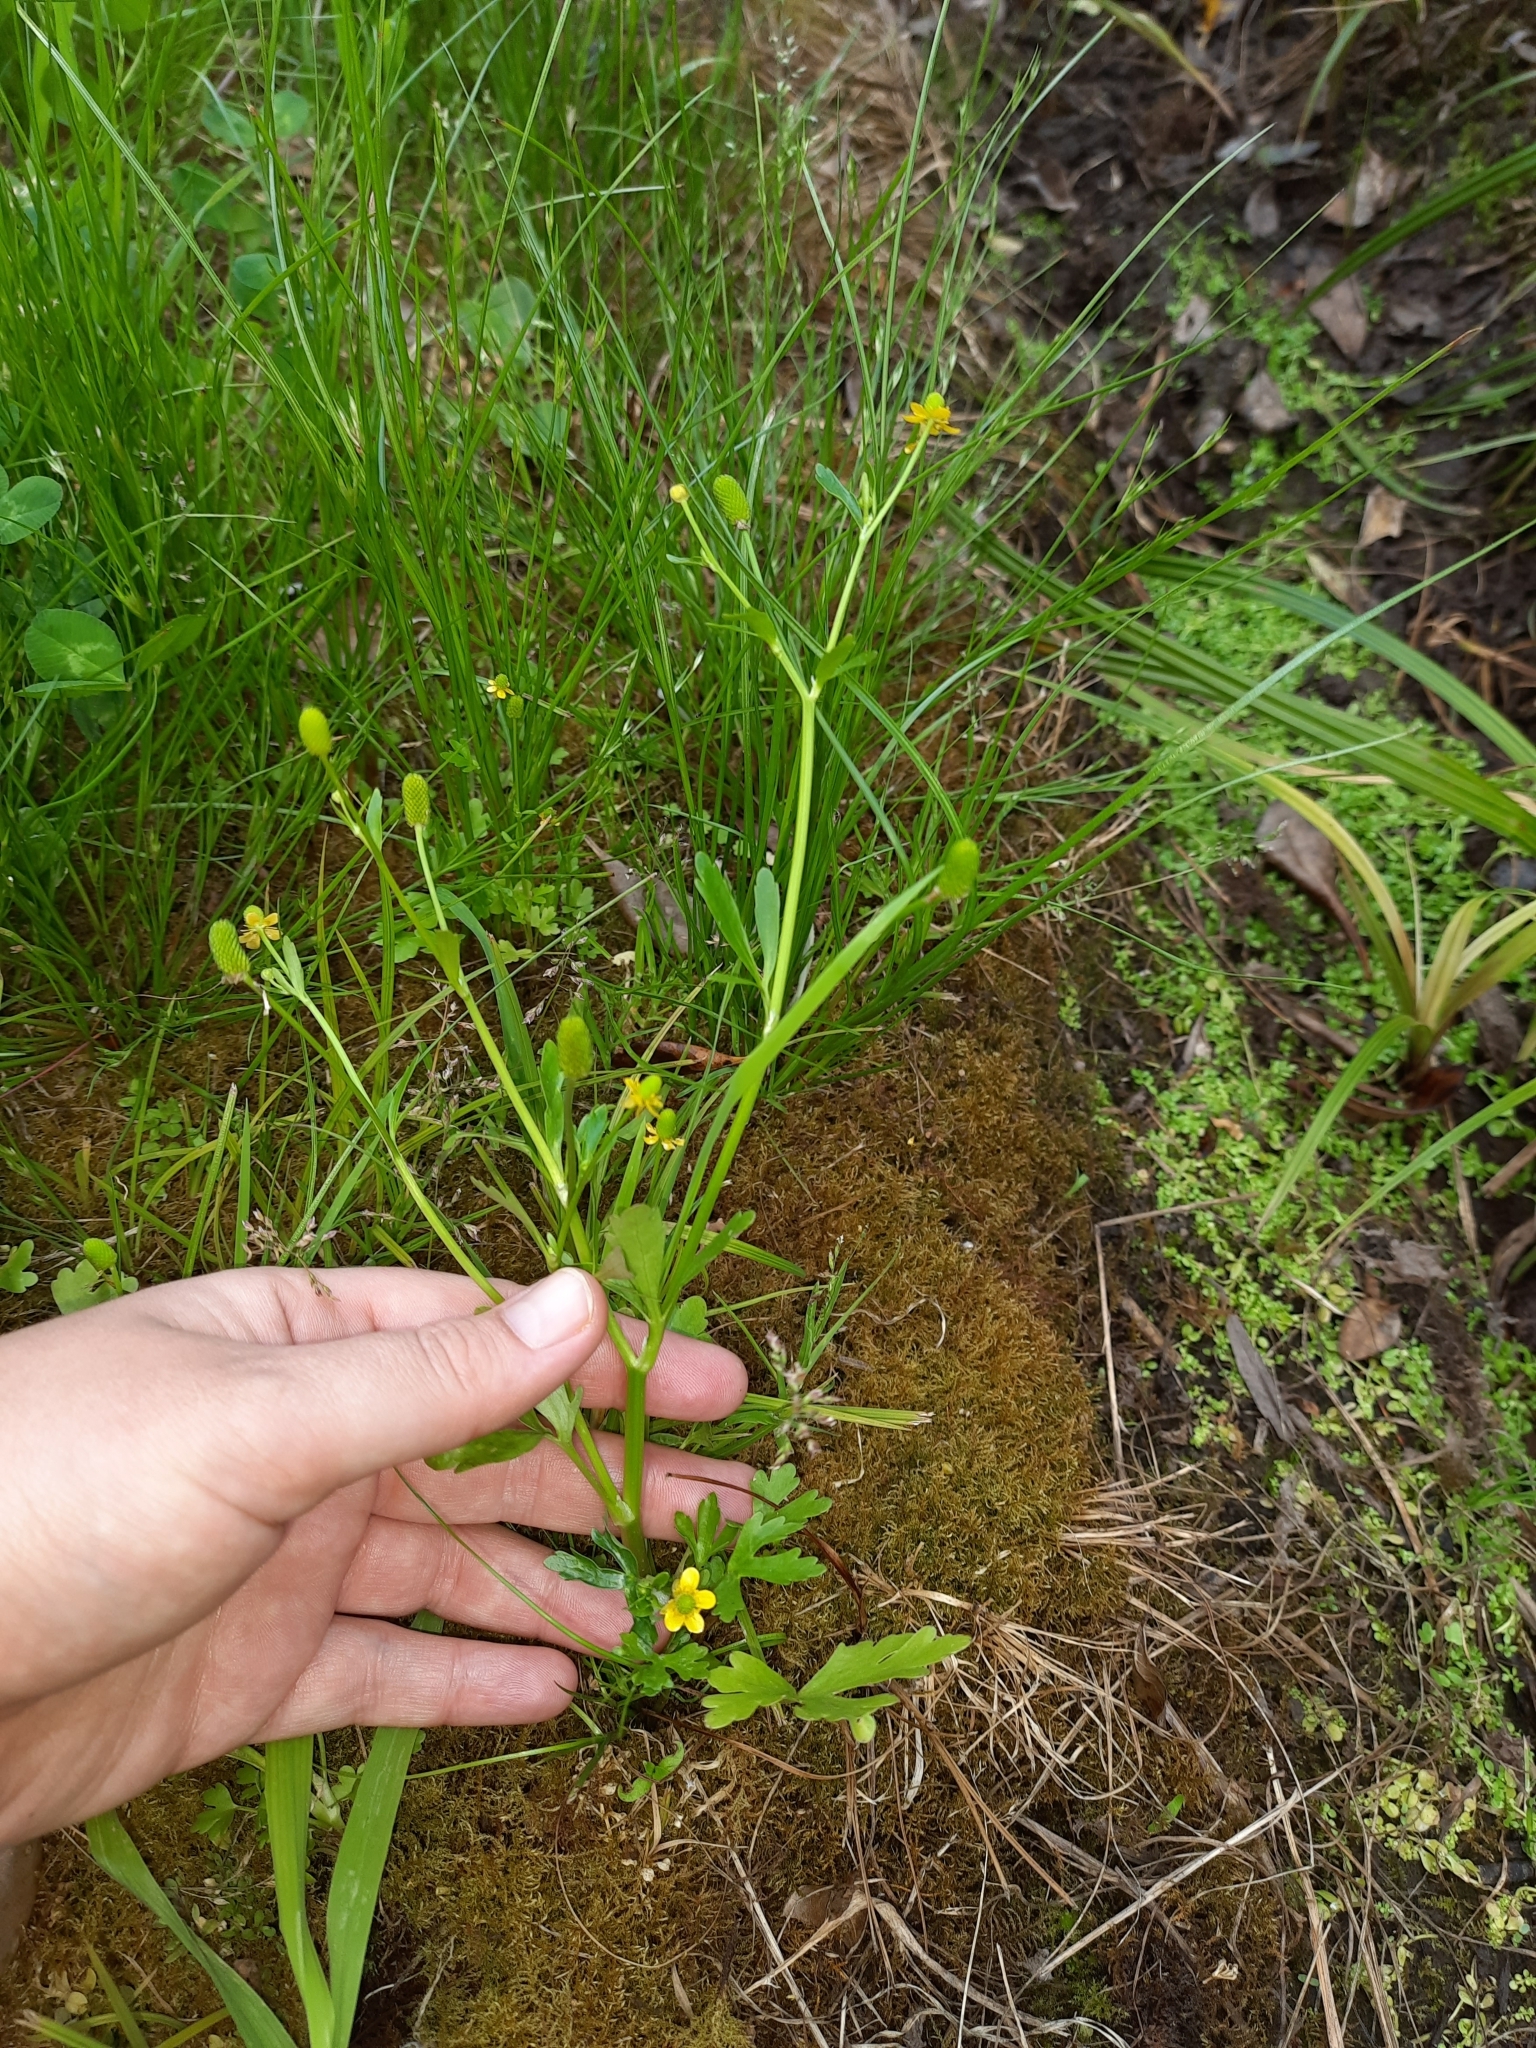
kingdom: Plantae
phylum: Tracheophyta
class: Magnoliopsida
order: Ranunculales
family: Ranunculaceae
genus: Ranunculus
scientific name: Ranunculus sceleratus
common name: Celery-leaved buttercup
